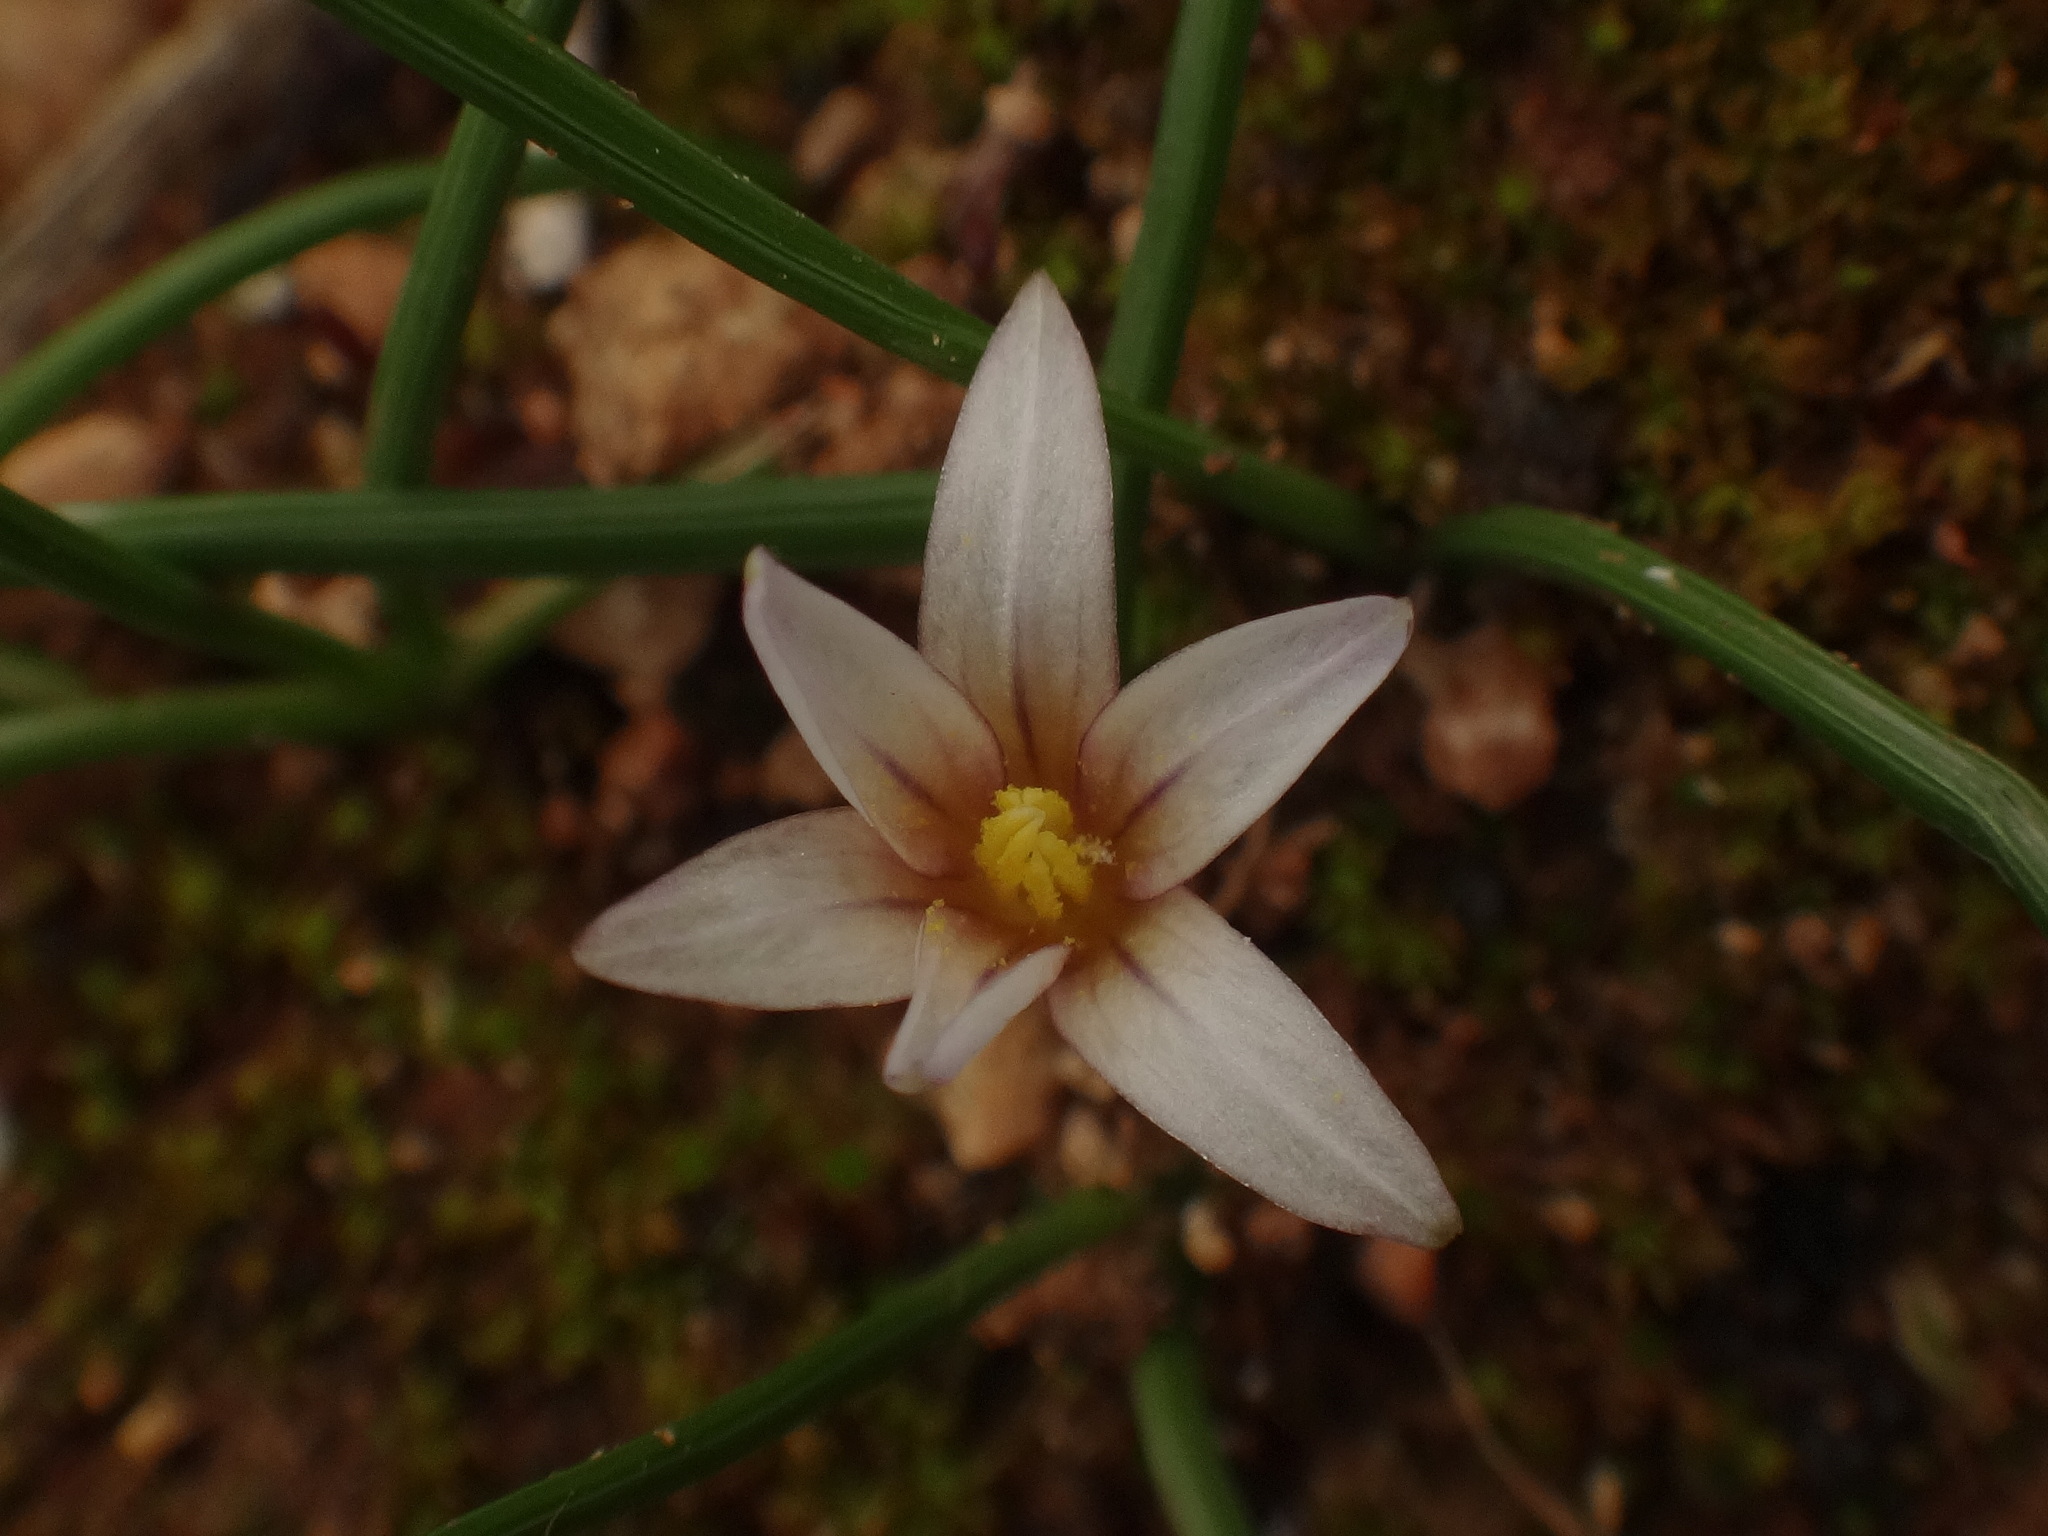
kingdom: Plantae
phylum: Tracheophyta
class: Liliopsida
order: Asparagales
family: Iridaceae
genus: Romulea
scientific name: Romulea columnae
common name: Sand-crocus
